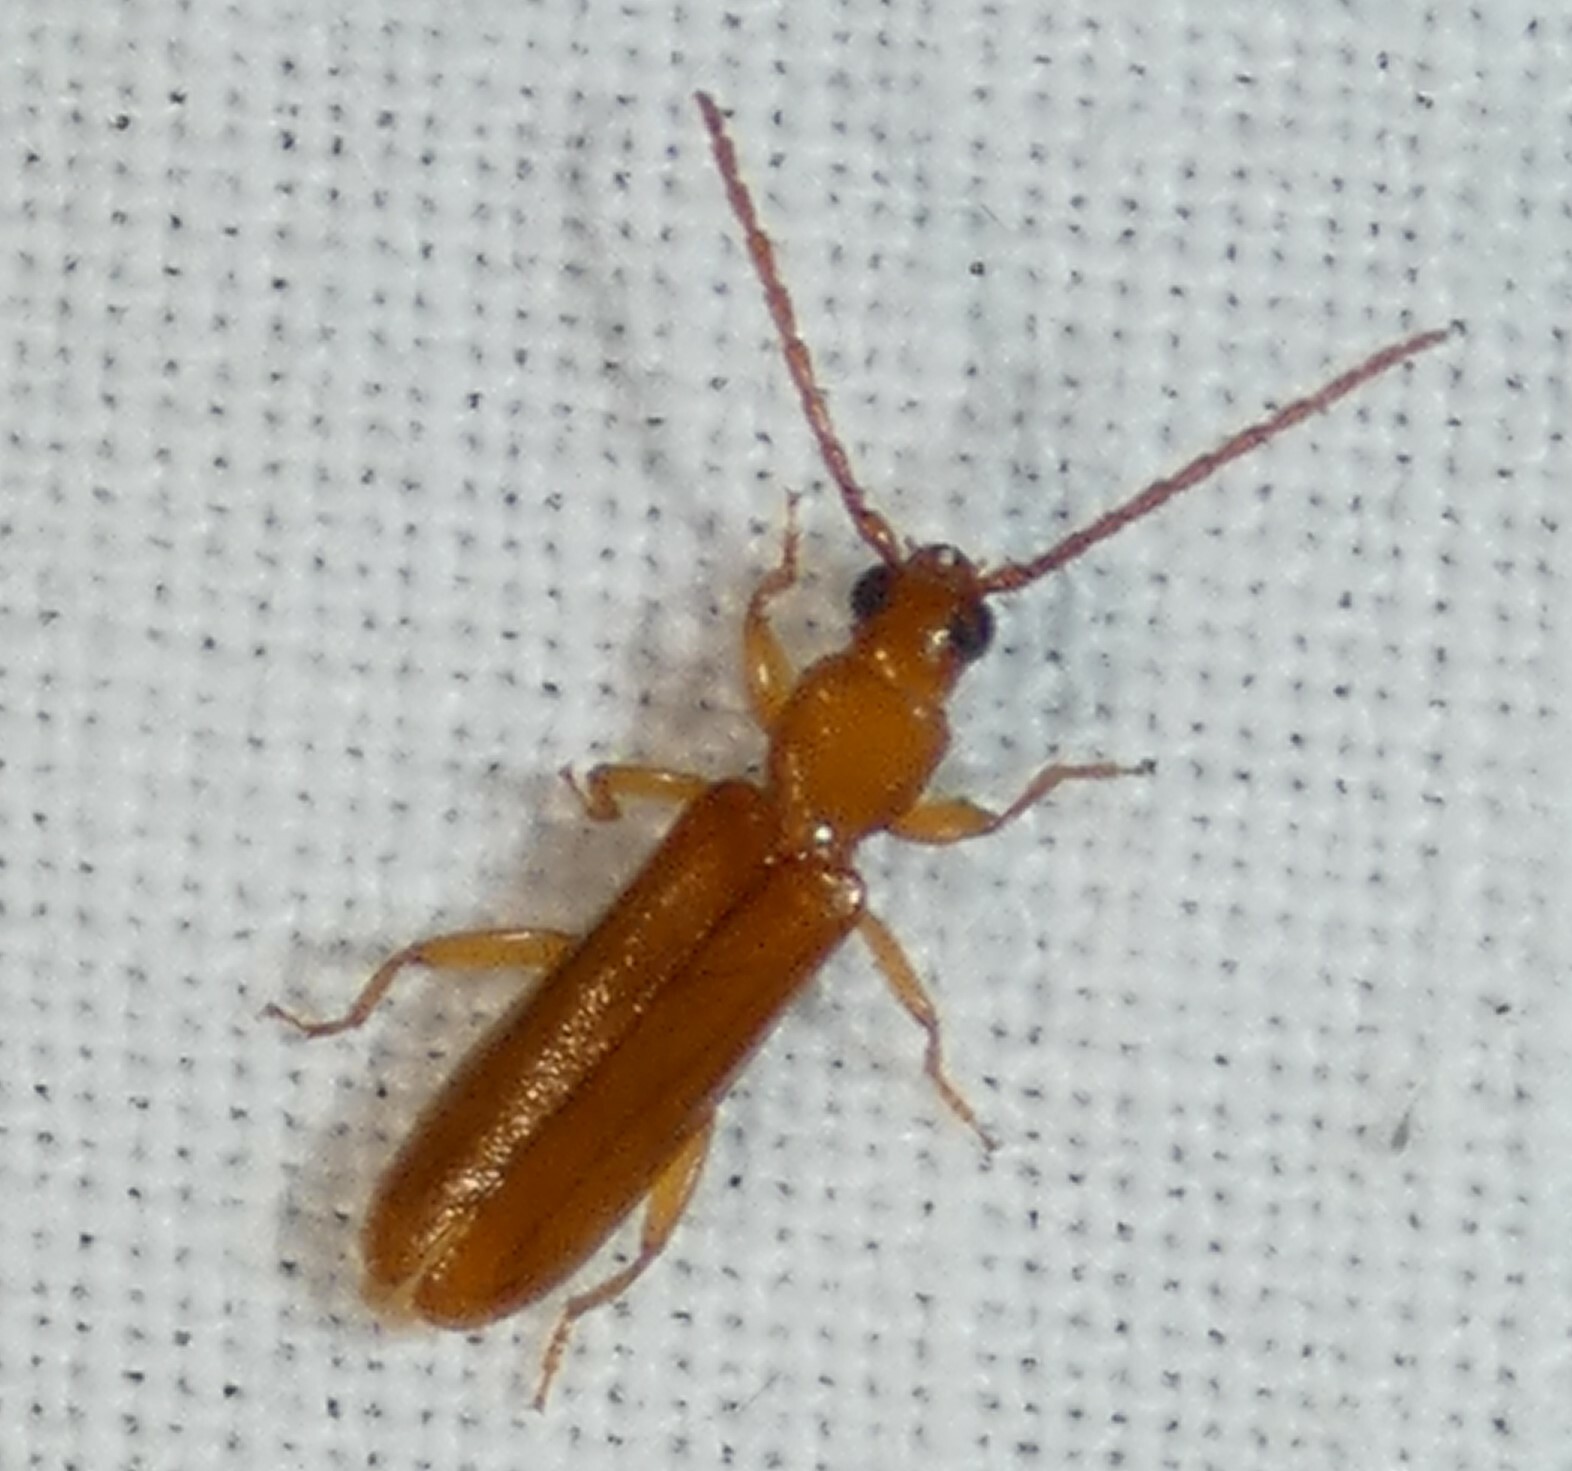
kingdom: Animalia
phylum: Arthropoda
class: Insecta
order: Coleoptera
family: Cerambycidae
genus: Smodicum
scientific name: Smodicum cucujiforme
